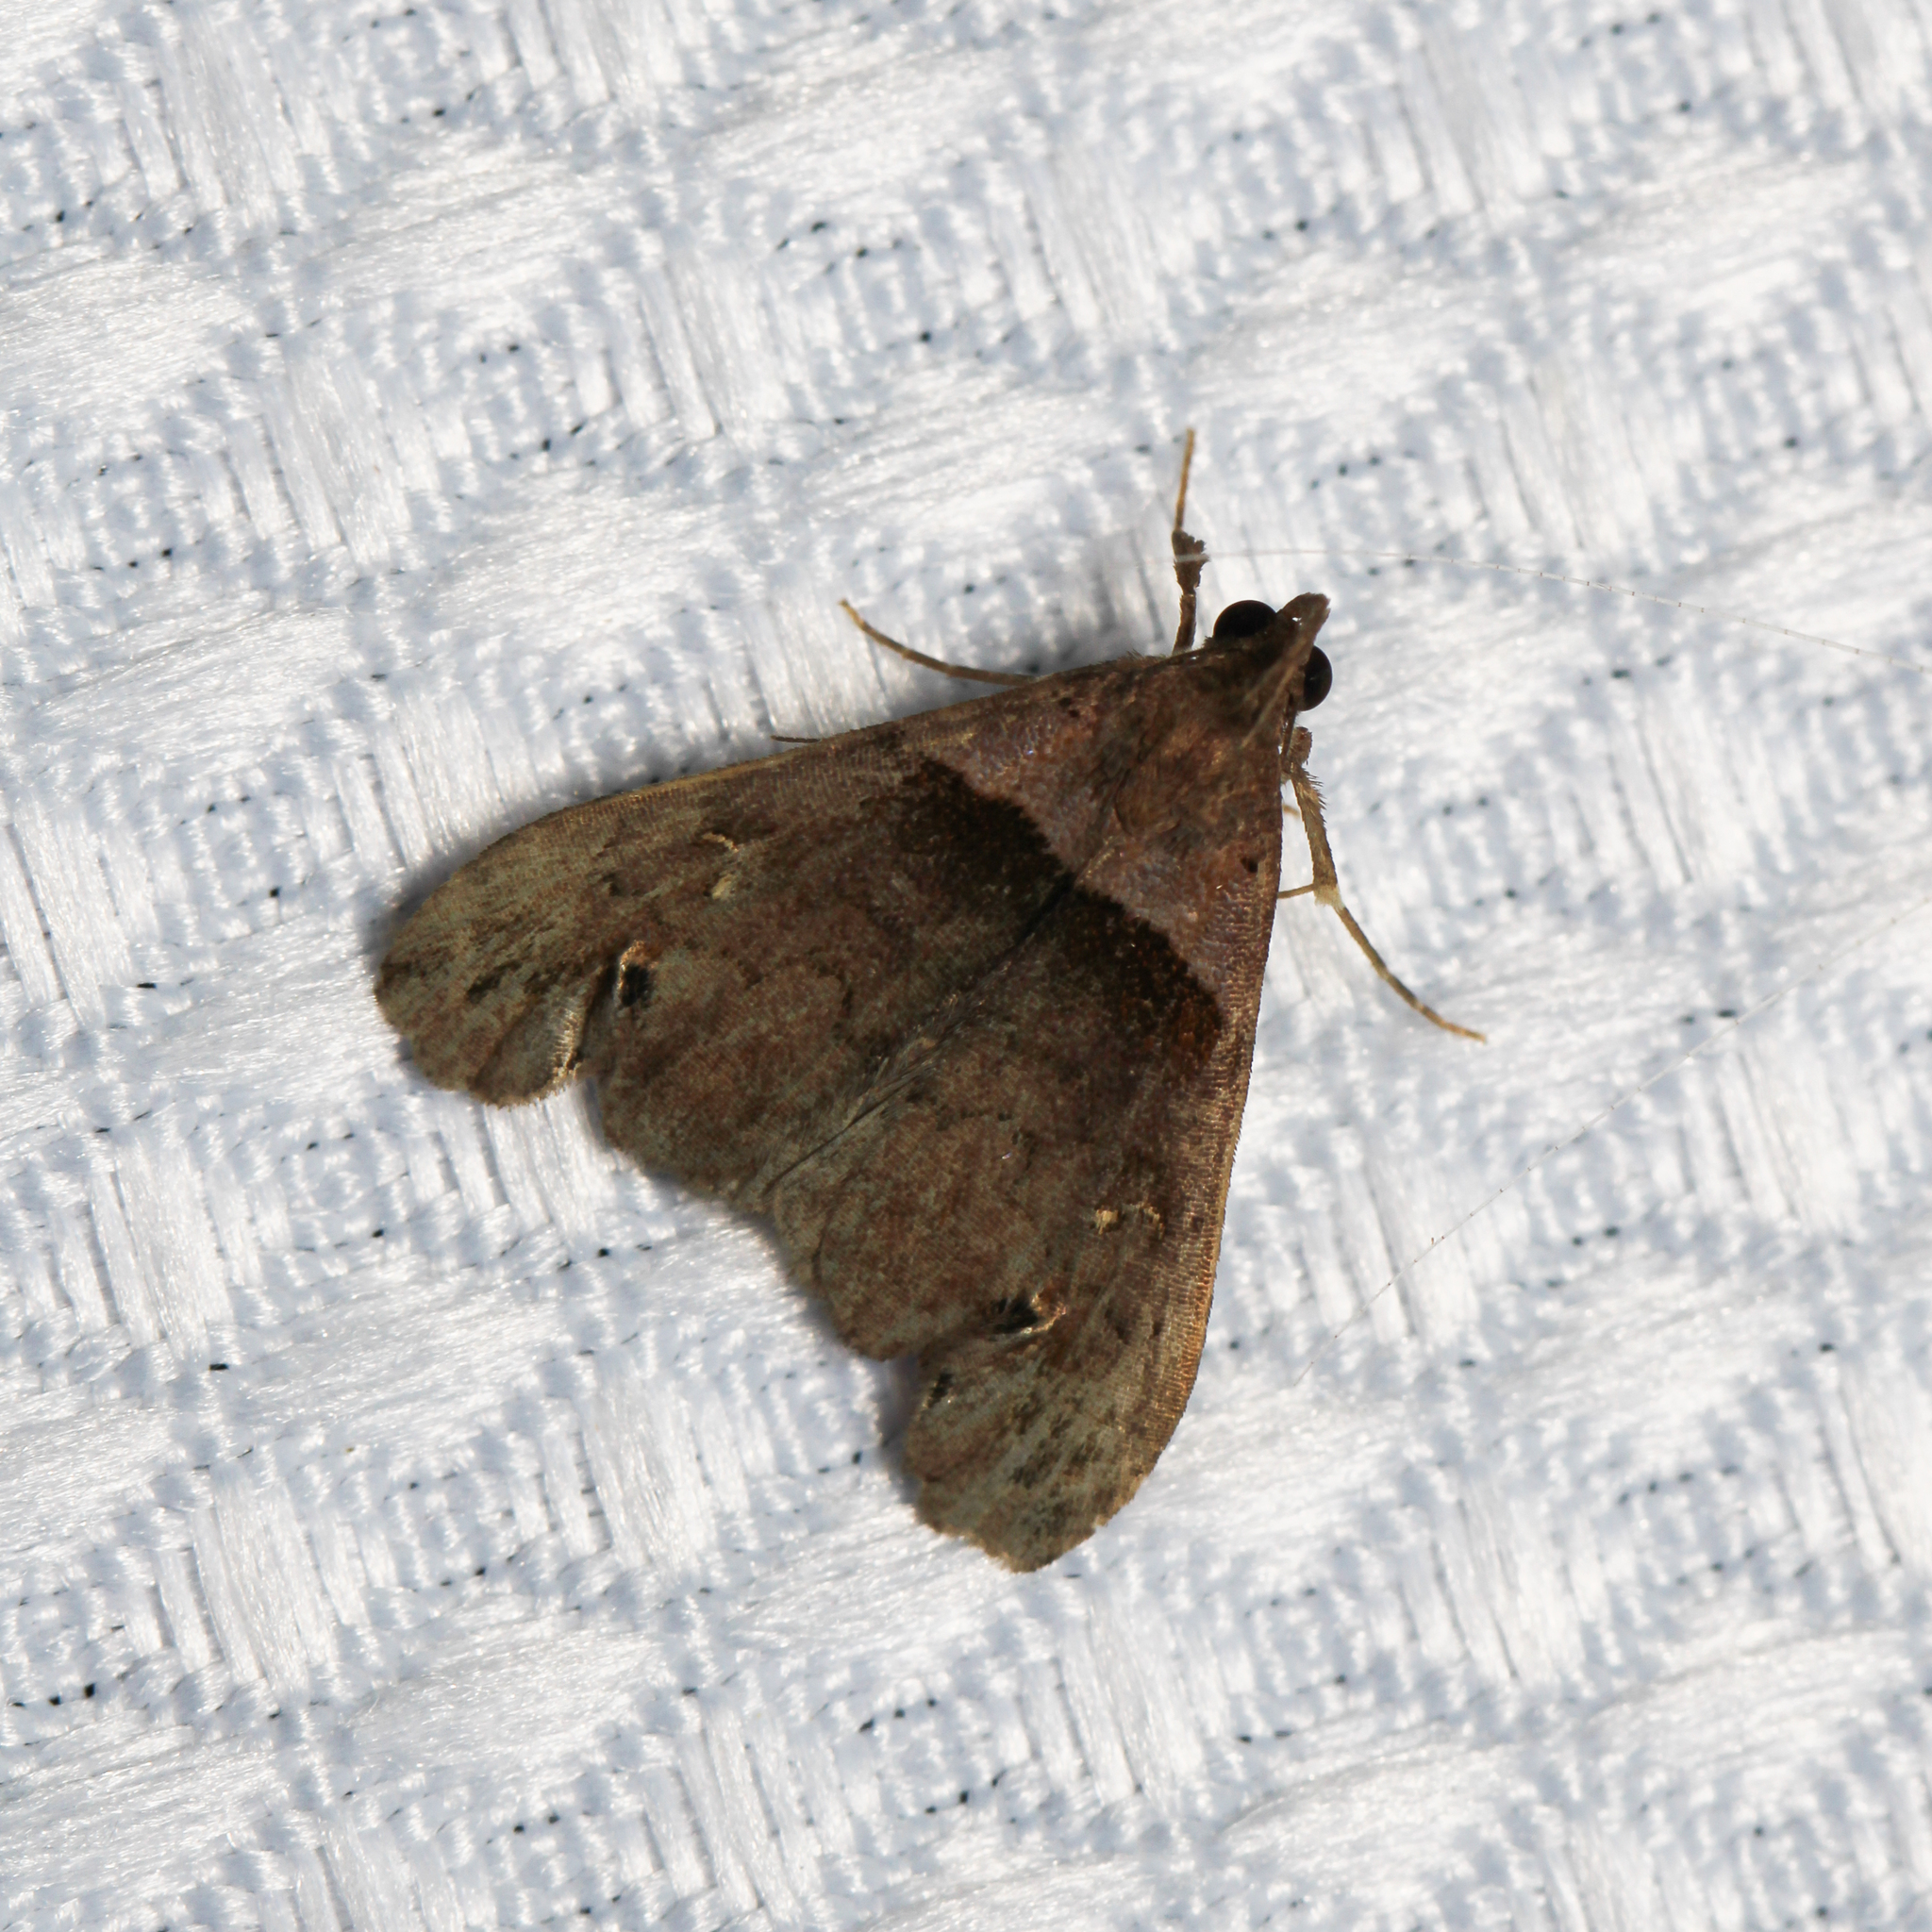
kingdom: Animalia
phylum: Arthropoda
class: Insecta
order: Lepidoptera
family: Erebidae
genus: Lascoria
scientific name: Lascoria ambigualis
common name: Ambiguous moth
